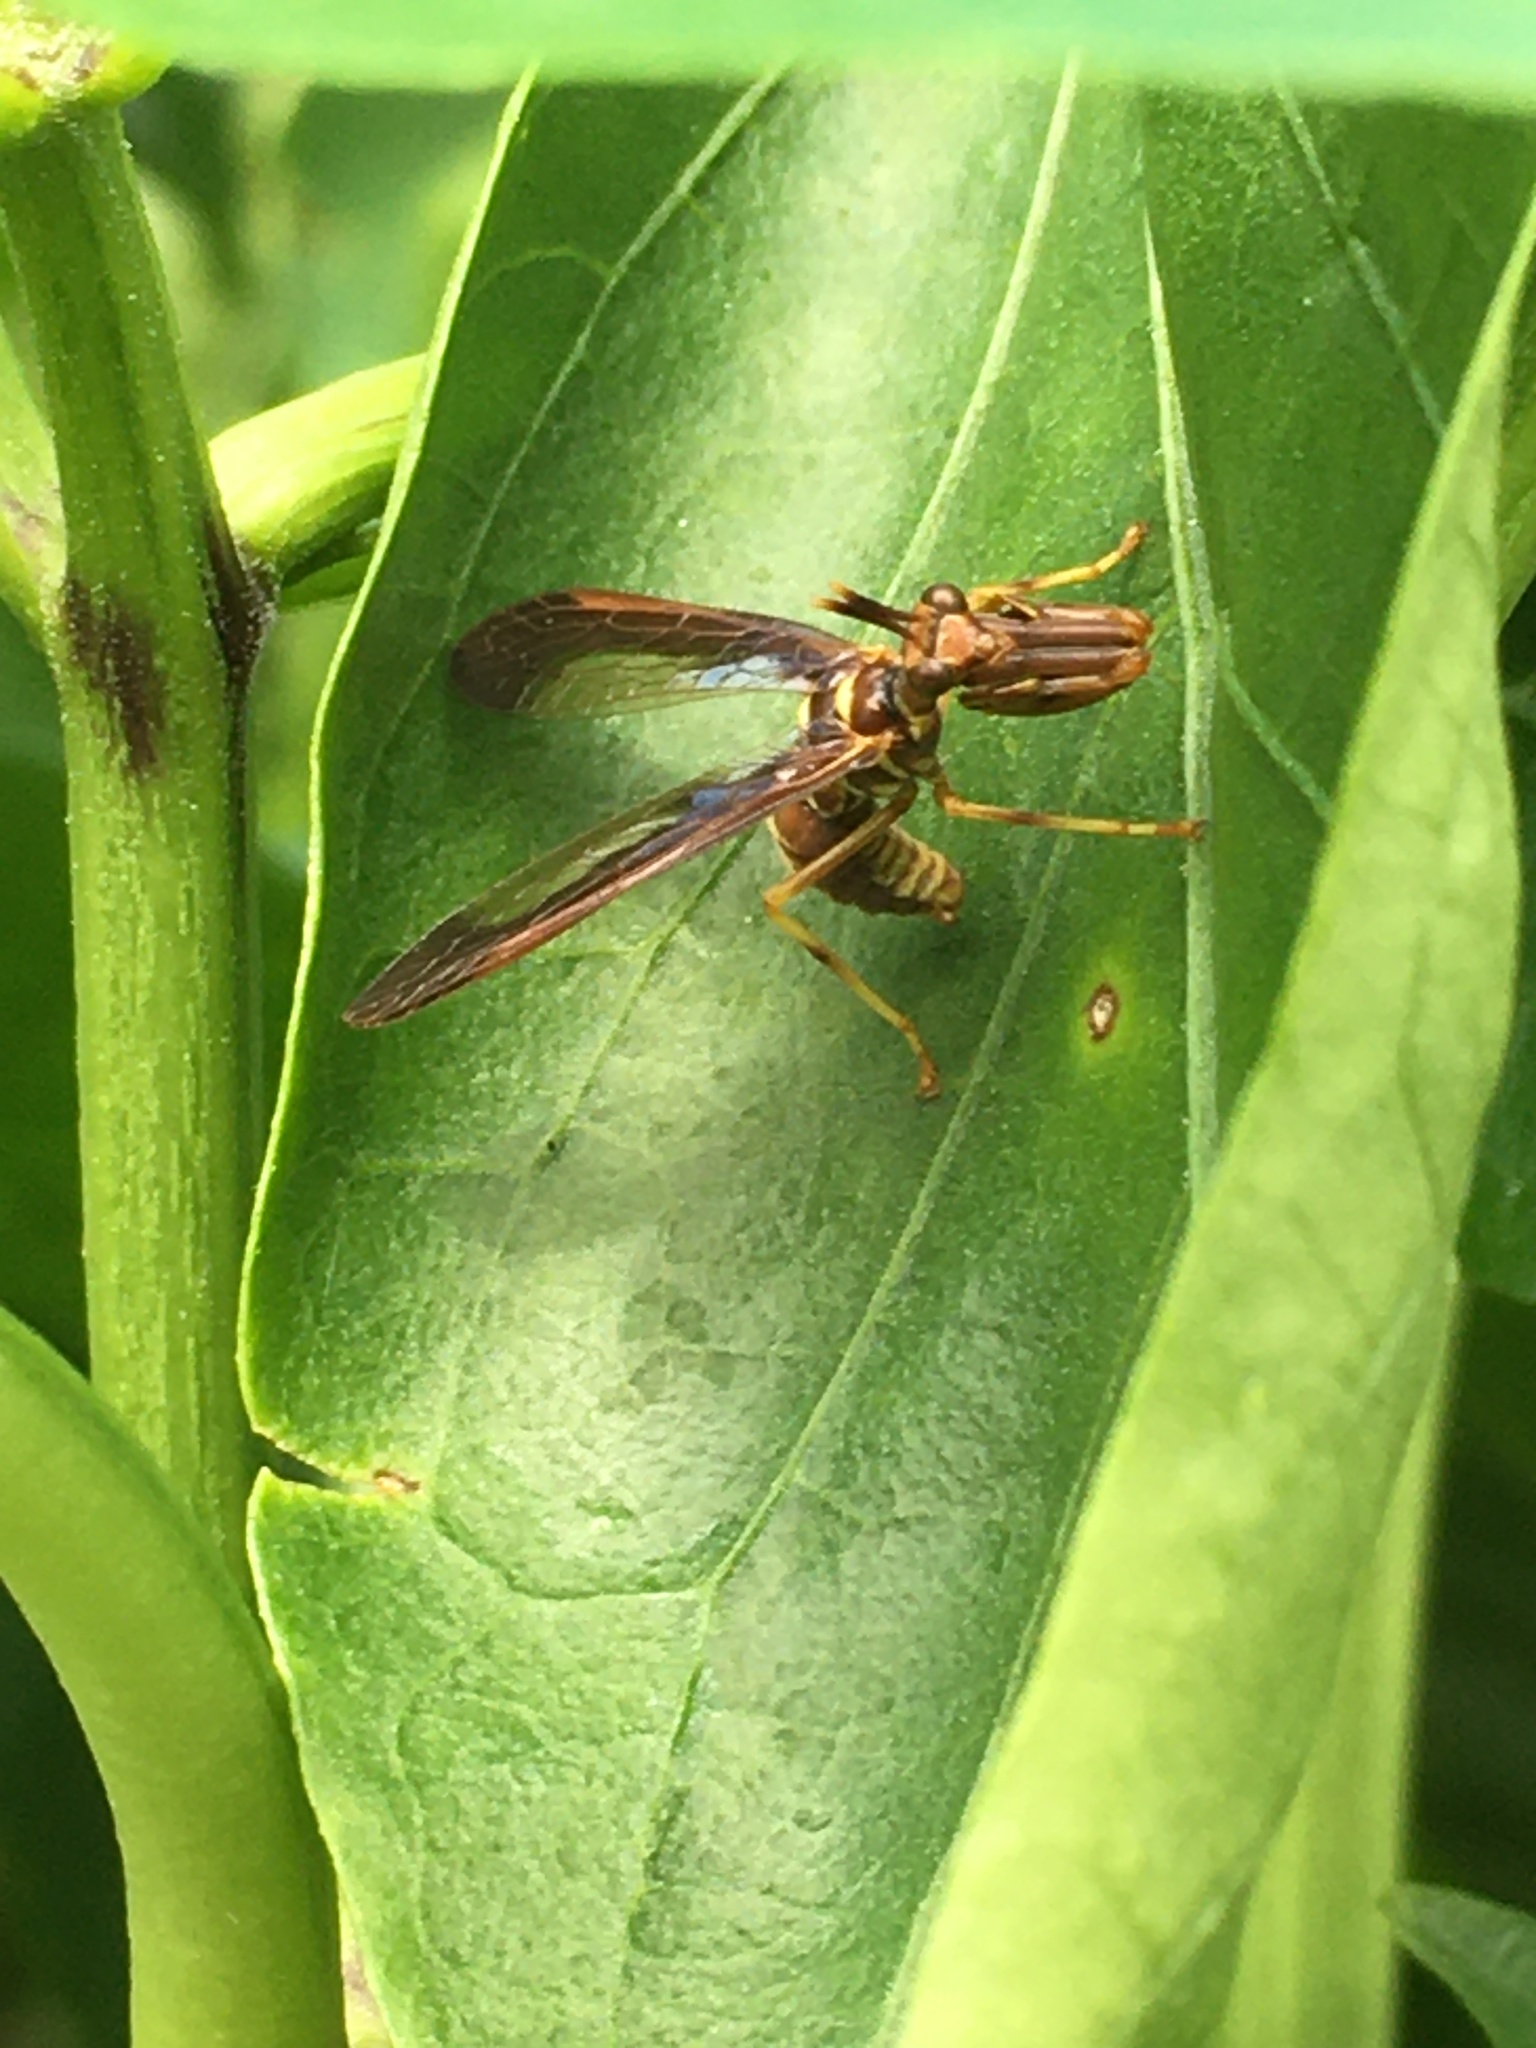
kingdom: Animalia
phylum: Arthropoda
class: Insecta
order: Neuroptera
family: Mantispidae
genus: Climaciella
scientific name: Climaciella brunnea
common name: Brown wasp mantidfly
